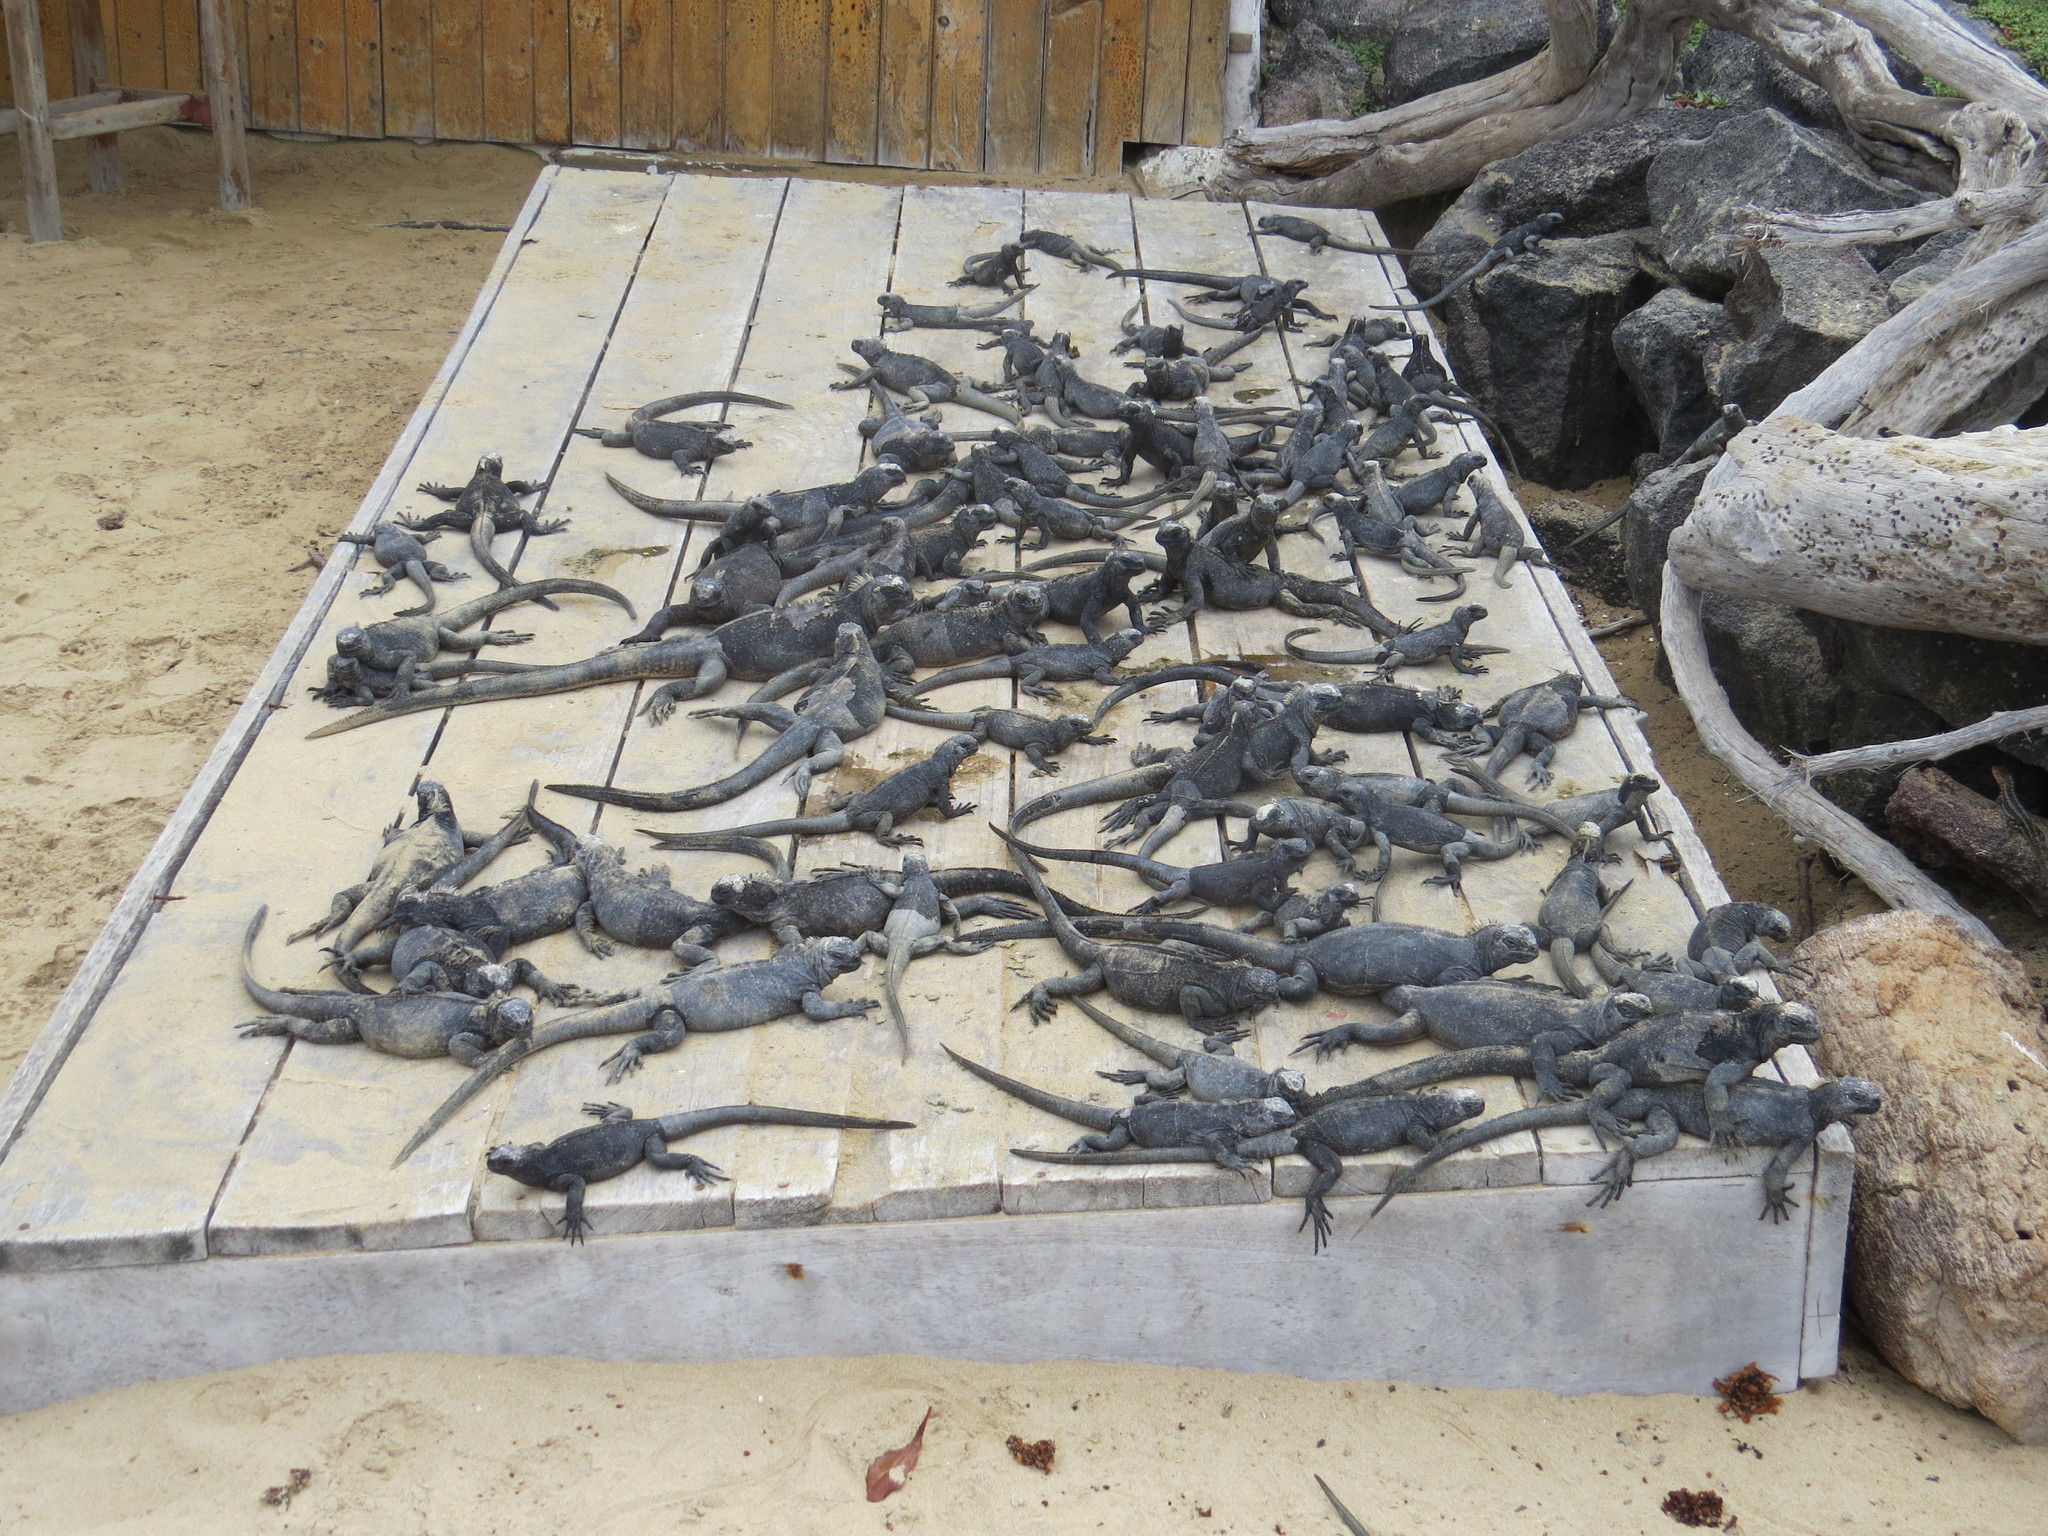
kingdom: Animalia
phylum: Chordata
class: Squamata
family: Iguanidae
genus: Amblyrhynchus
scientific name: Amblyrhynchus cristatus
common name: Marine iguana
